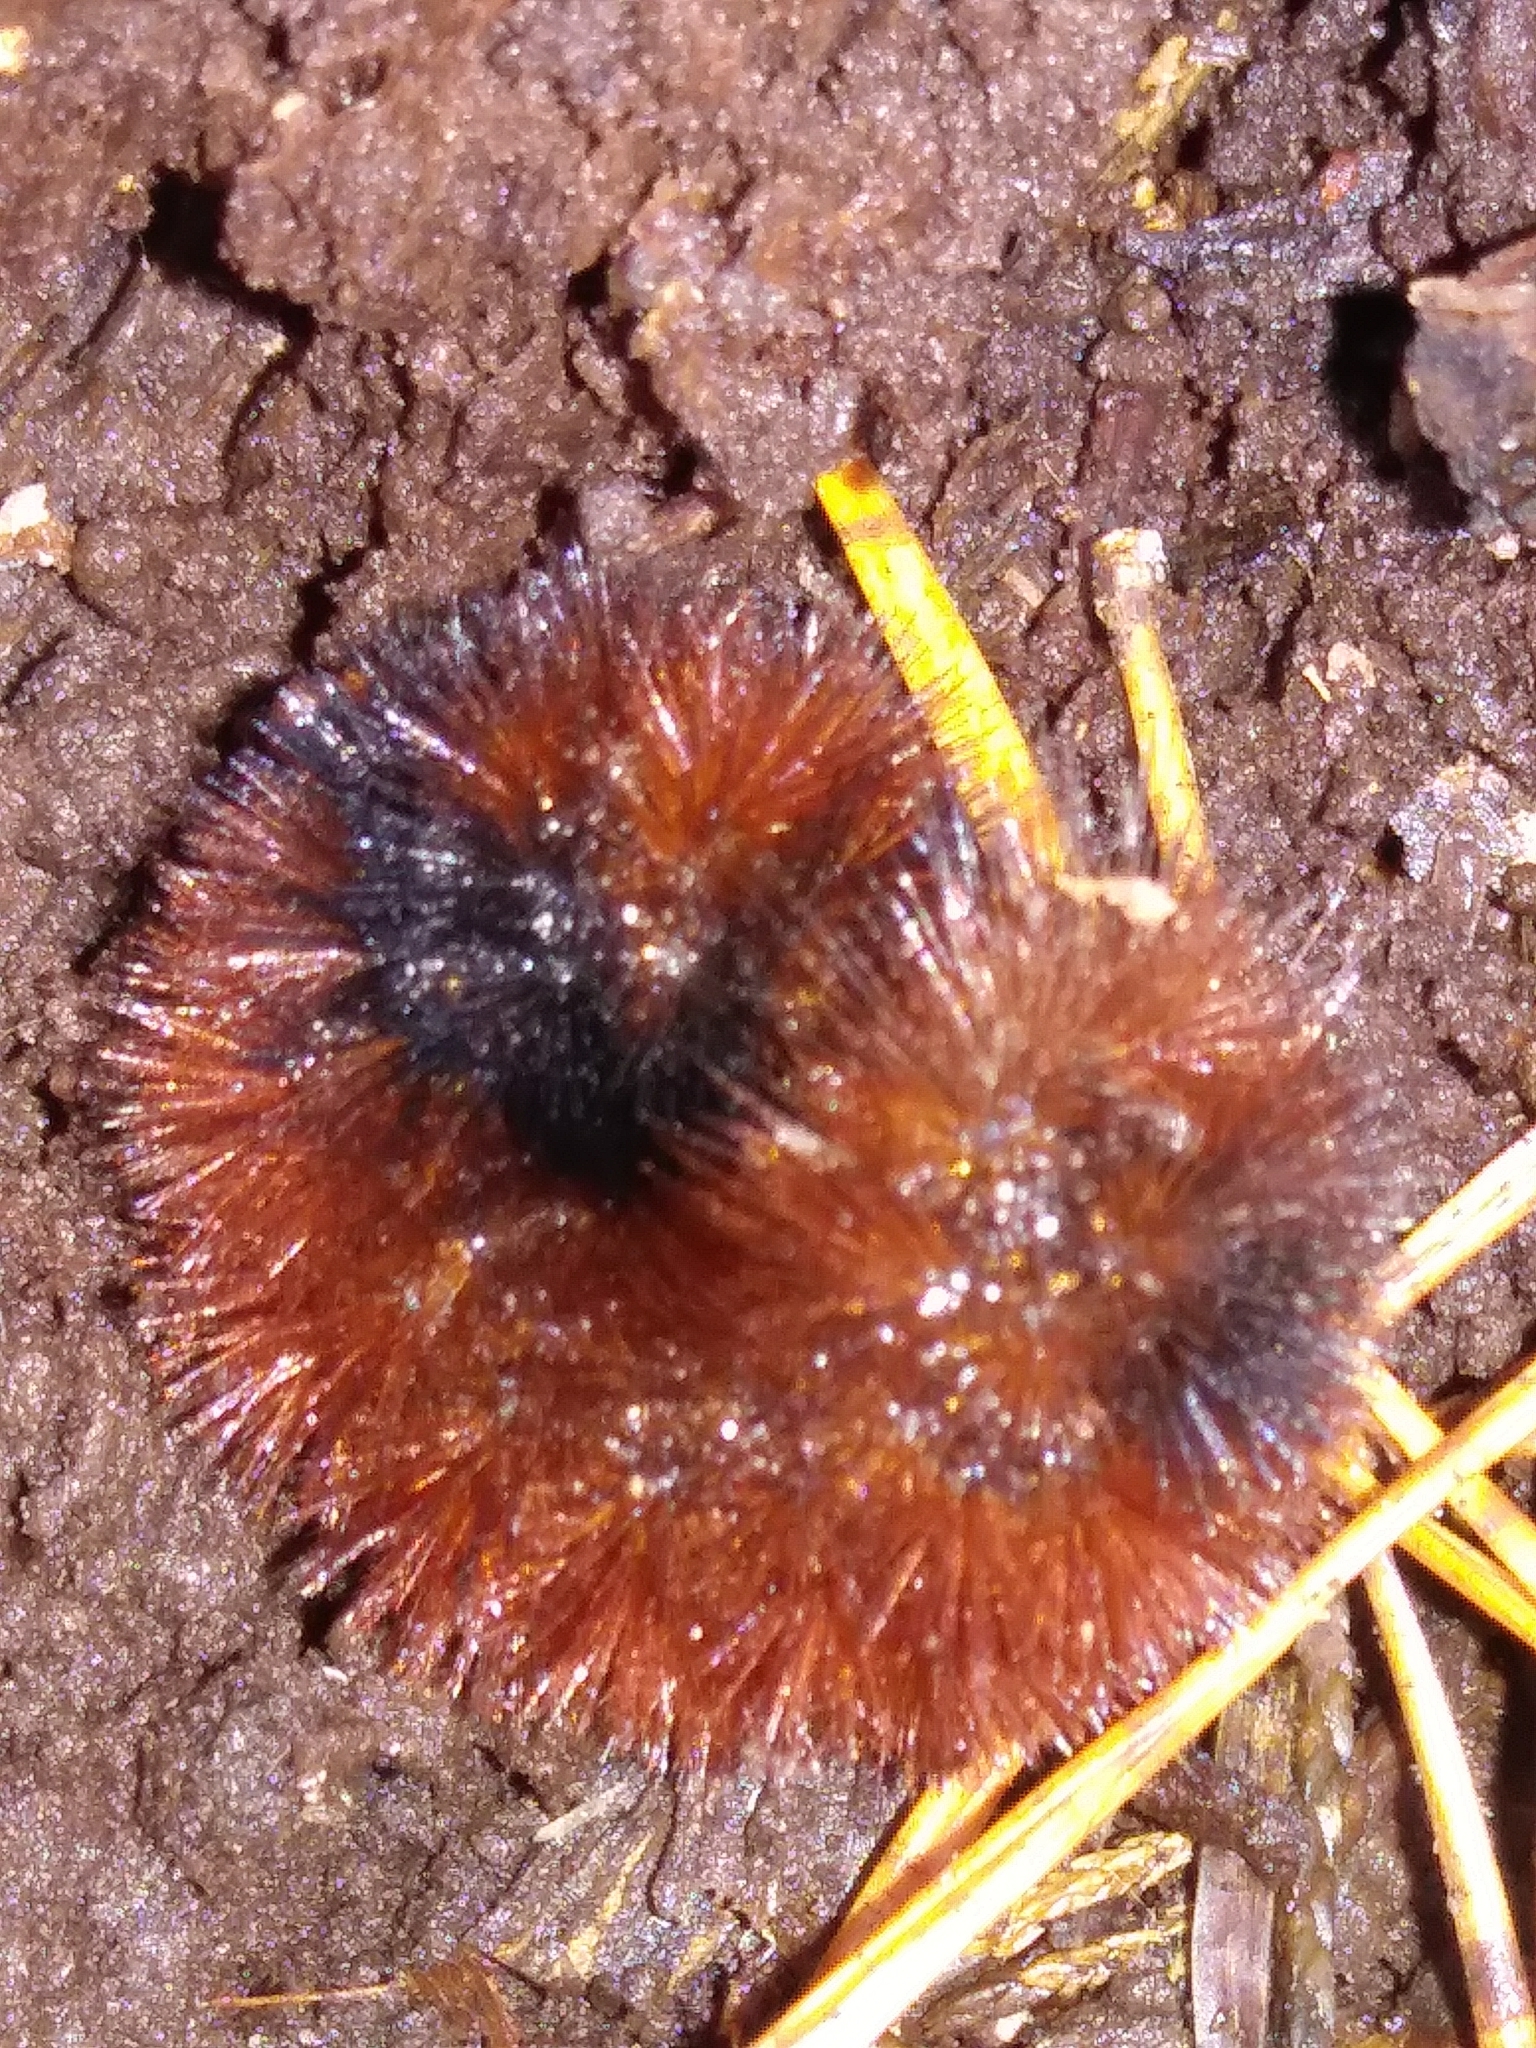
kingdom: Animalia
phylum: Arthropoda
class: Insecta
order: Lepidoptera
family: Erebidae
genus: Pyrrharctia
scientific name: Pyrrharctia isabella
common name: Isabella tiger moth
